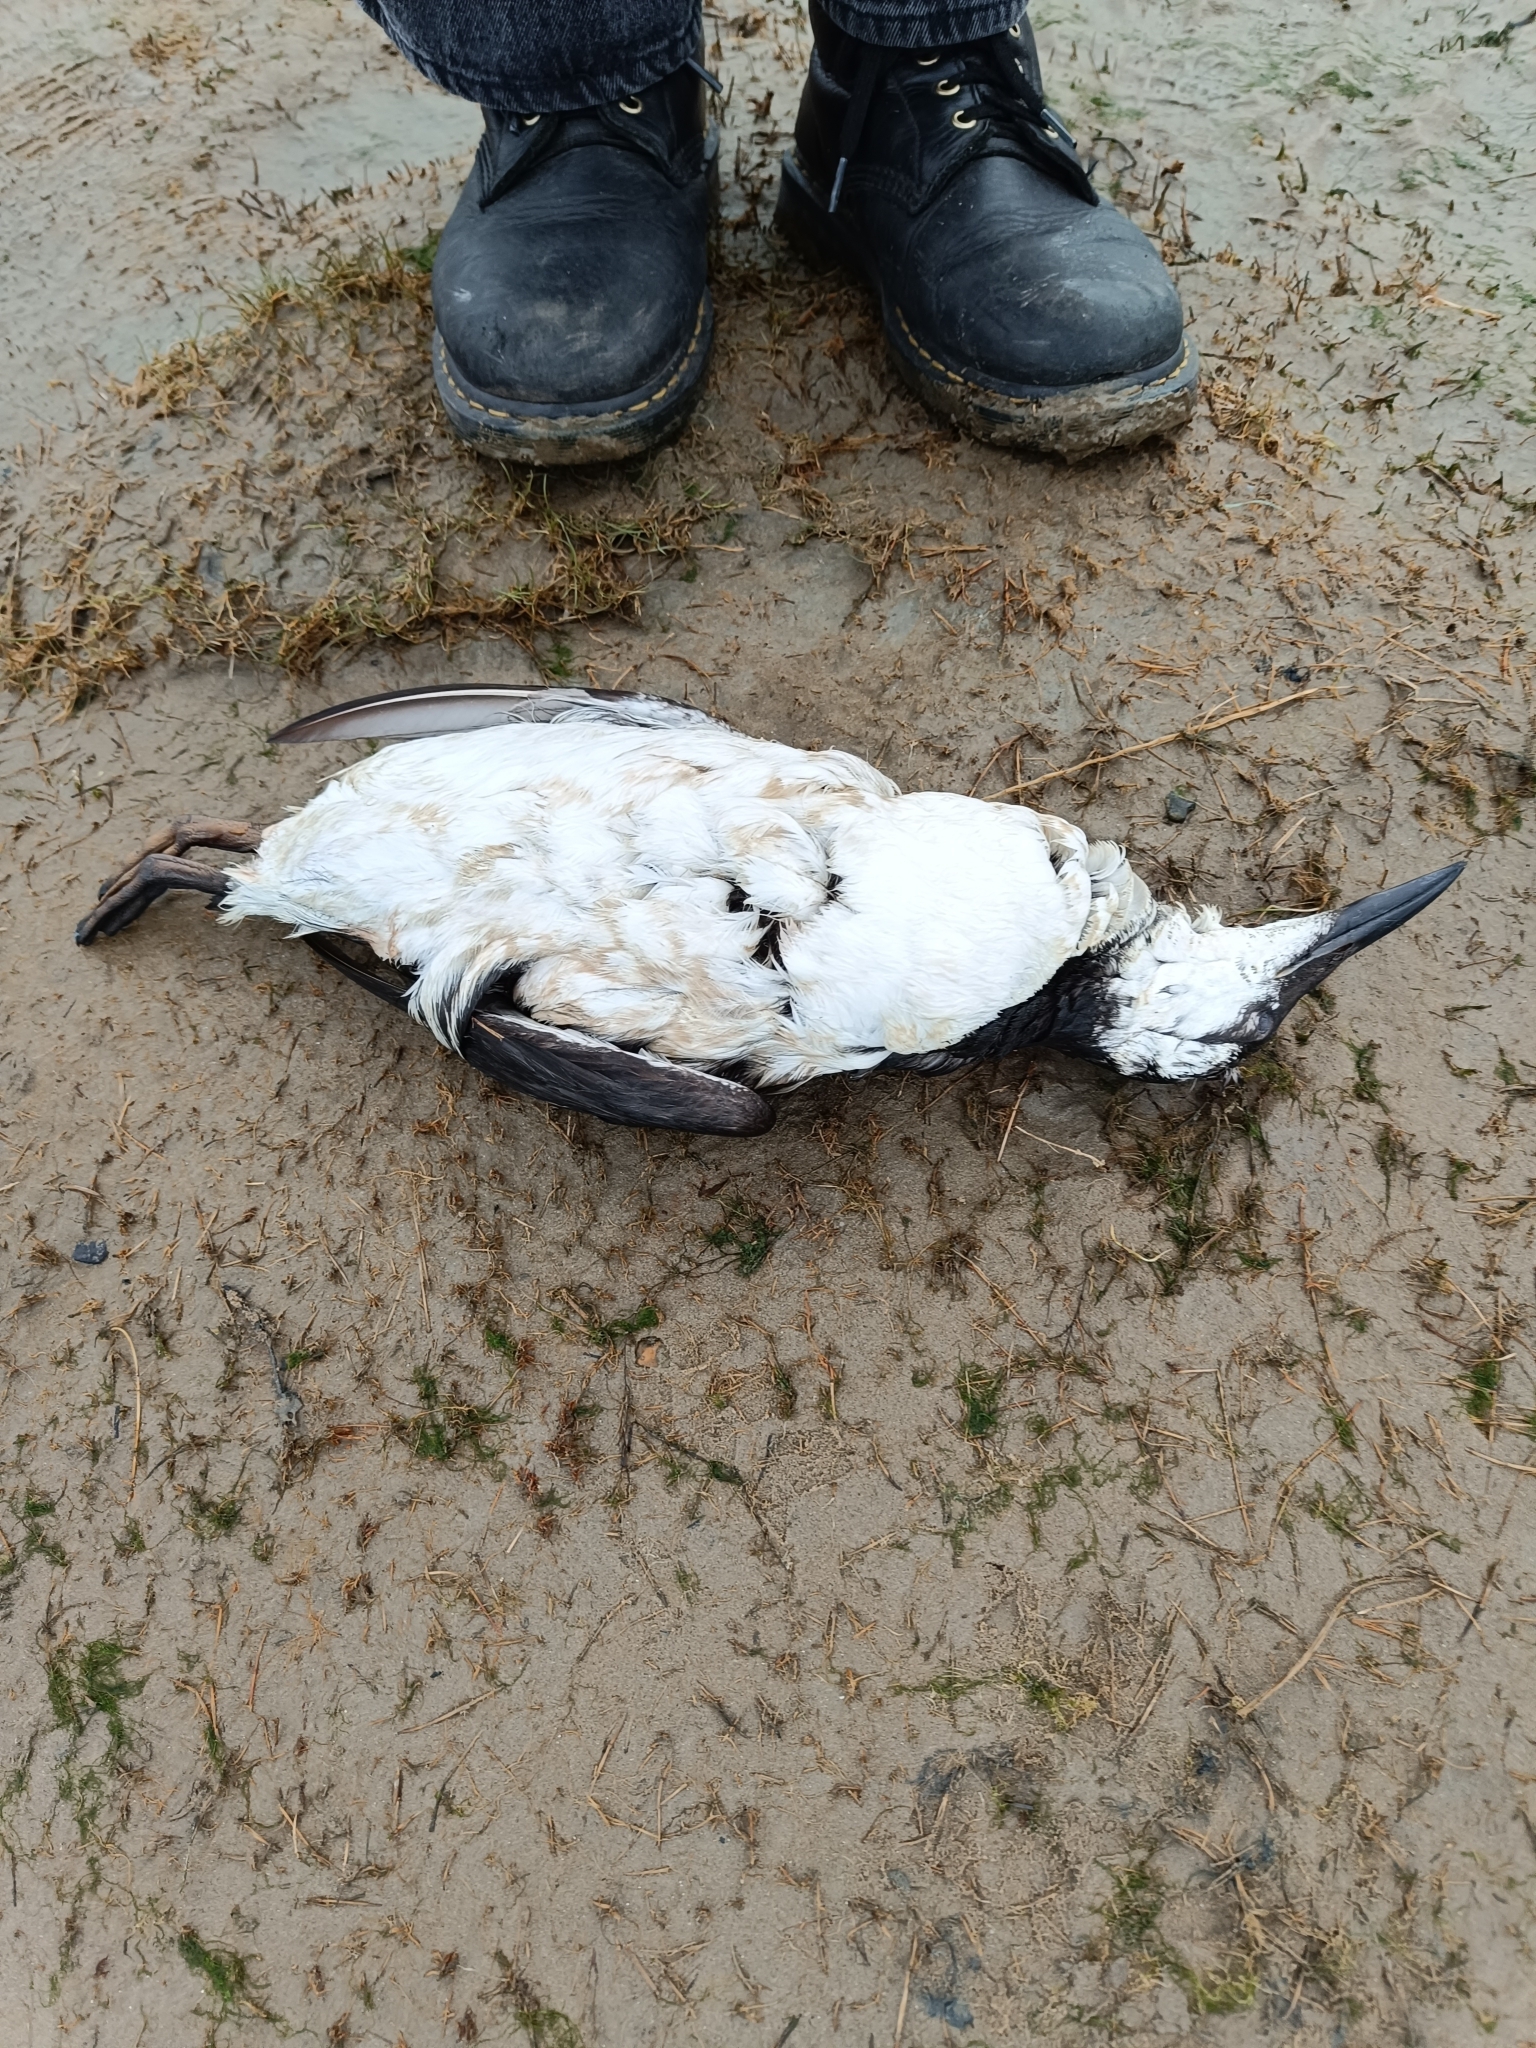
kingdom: Animalia
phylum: Chordata
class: Aves
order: Charadriiformes
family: Alcidae
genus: Uria
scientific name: Uria aalge
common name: Common murre
